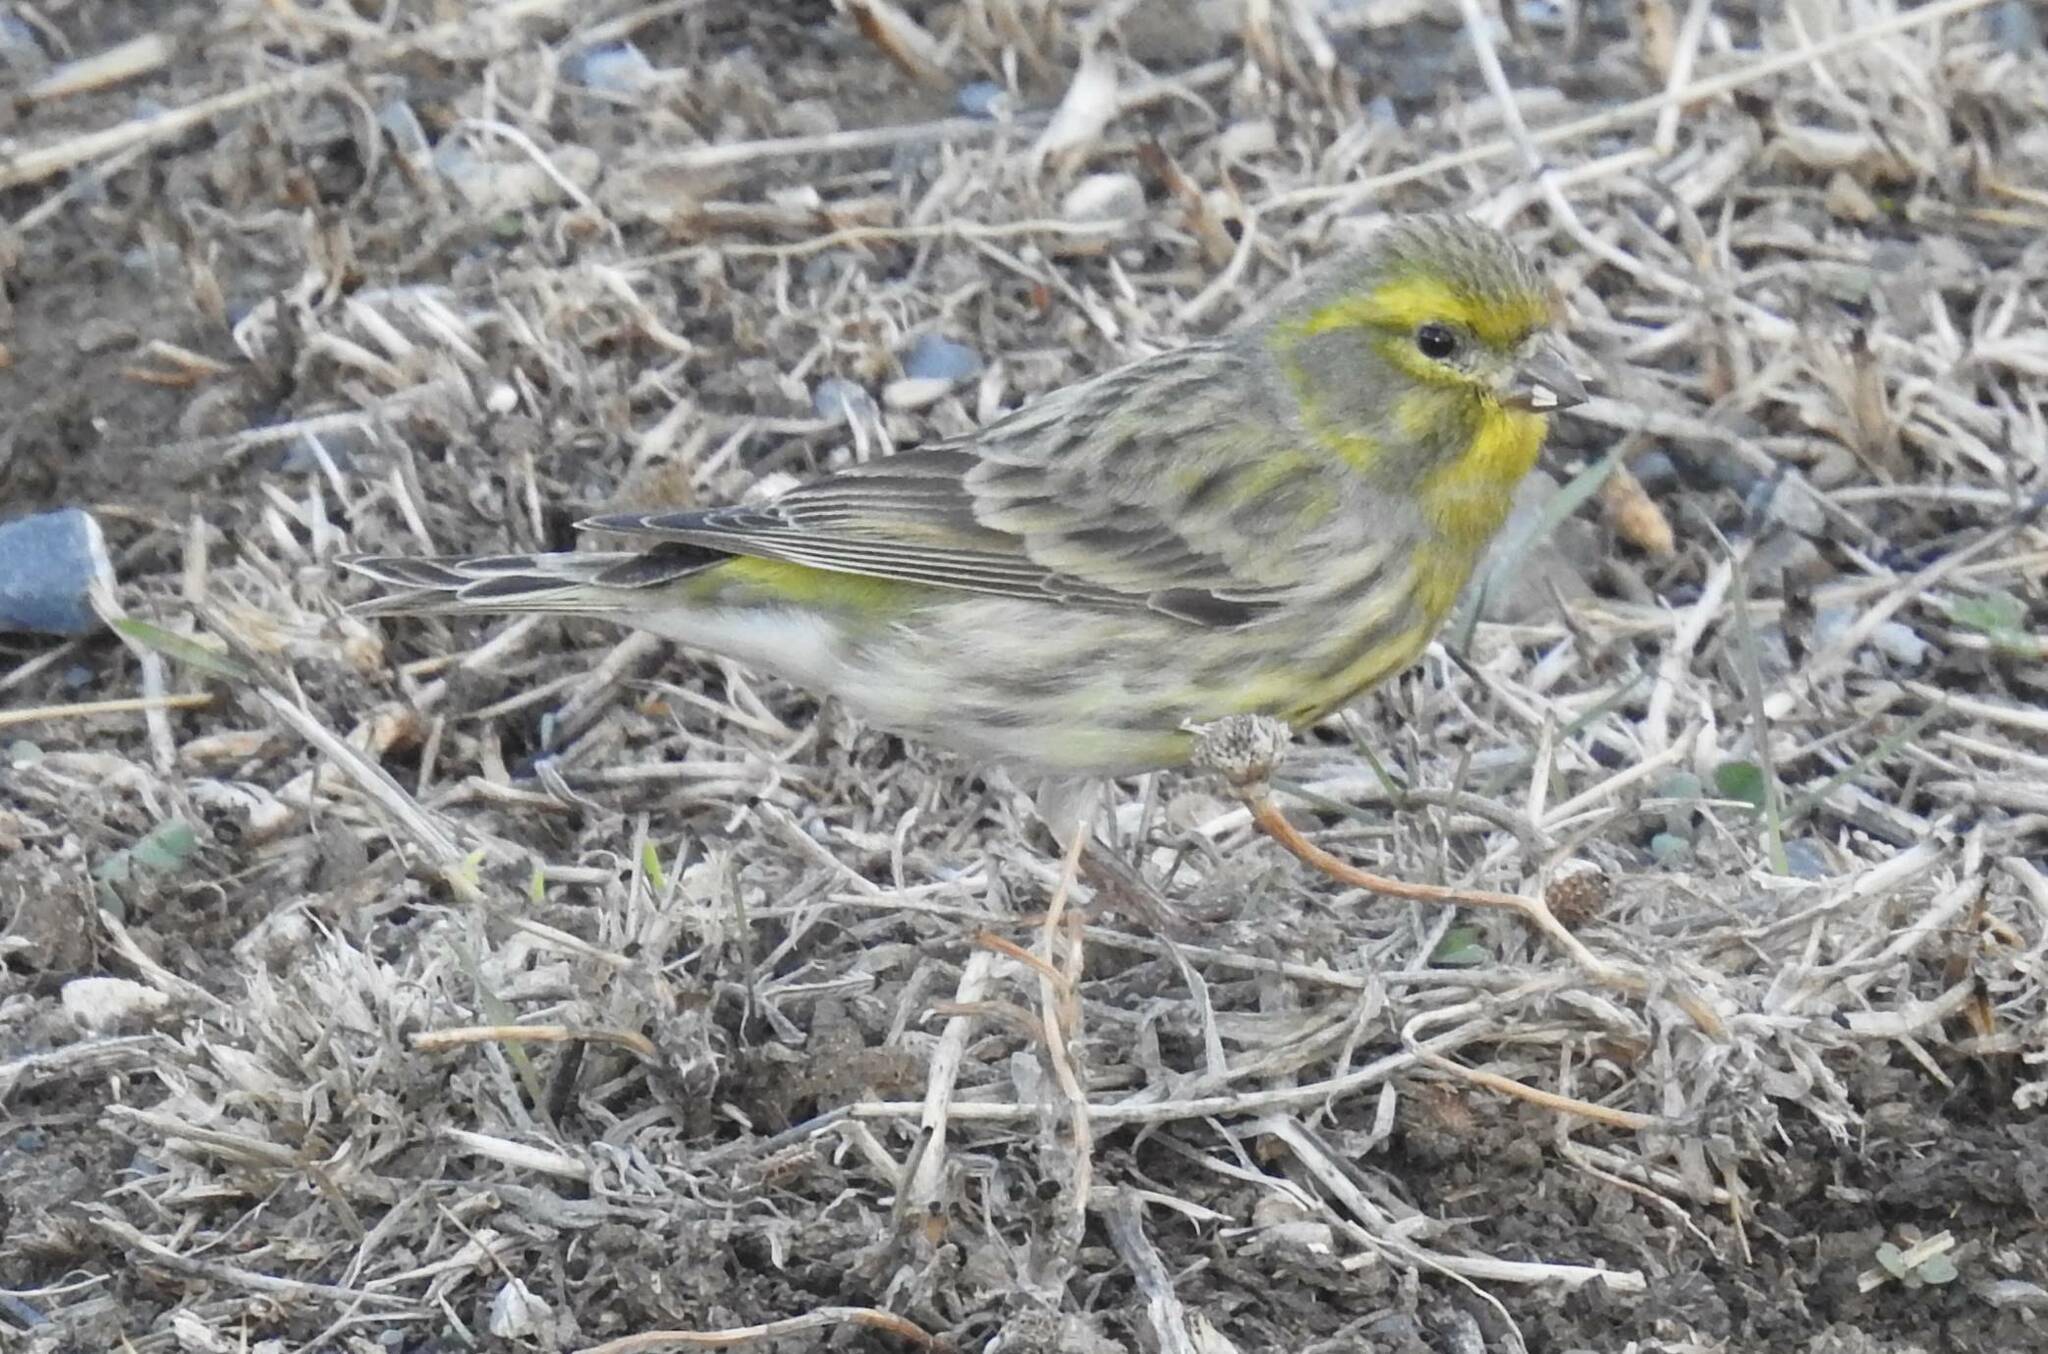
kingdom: Animalia
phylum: Chordata
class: Aves
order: Passeriformes
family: Fringillidae
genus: Serinus
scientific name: Serinus serinus
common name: European serin
